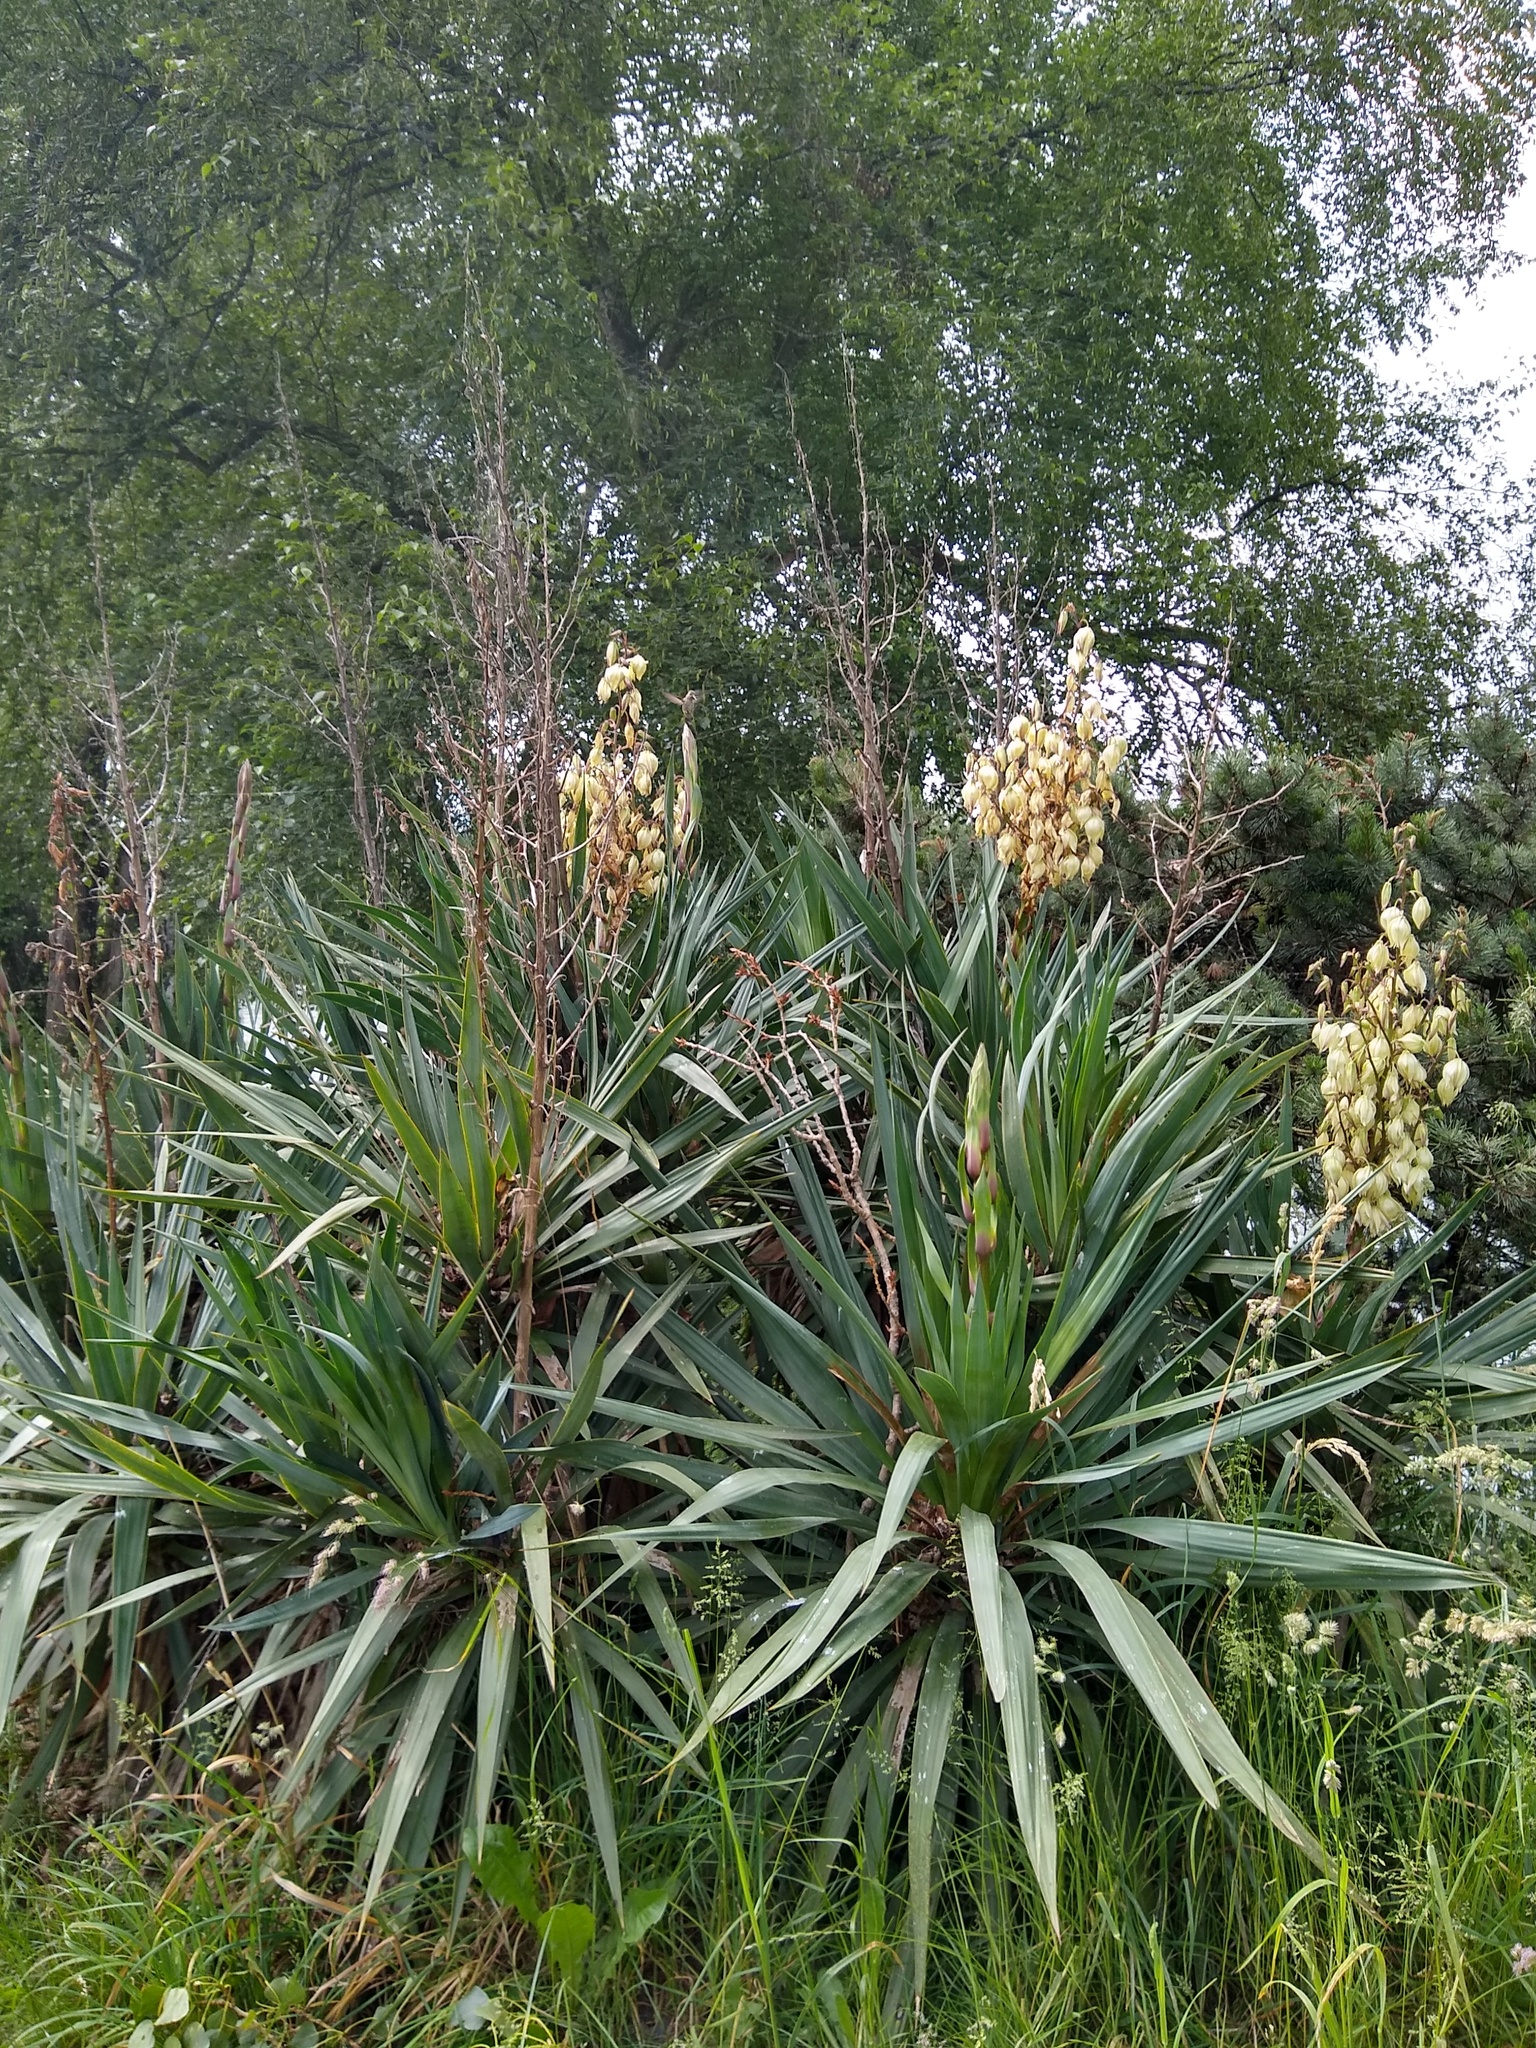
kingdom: Plantae
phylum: Tracheophyta
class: Liliopsida
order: Asparagales
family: Asparagaceae
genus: Yucca
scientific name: Yucca filamentosa
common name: Adam's-needle
